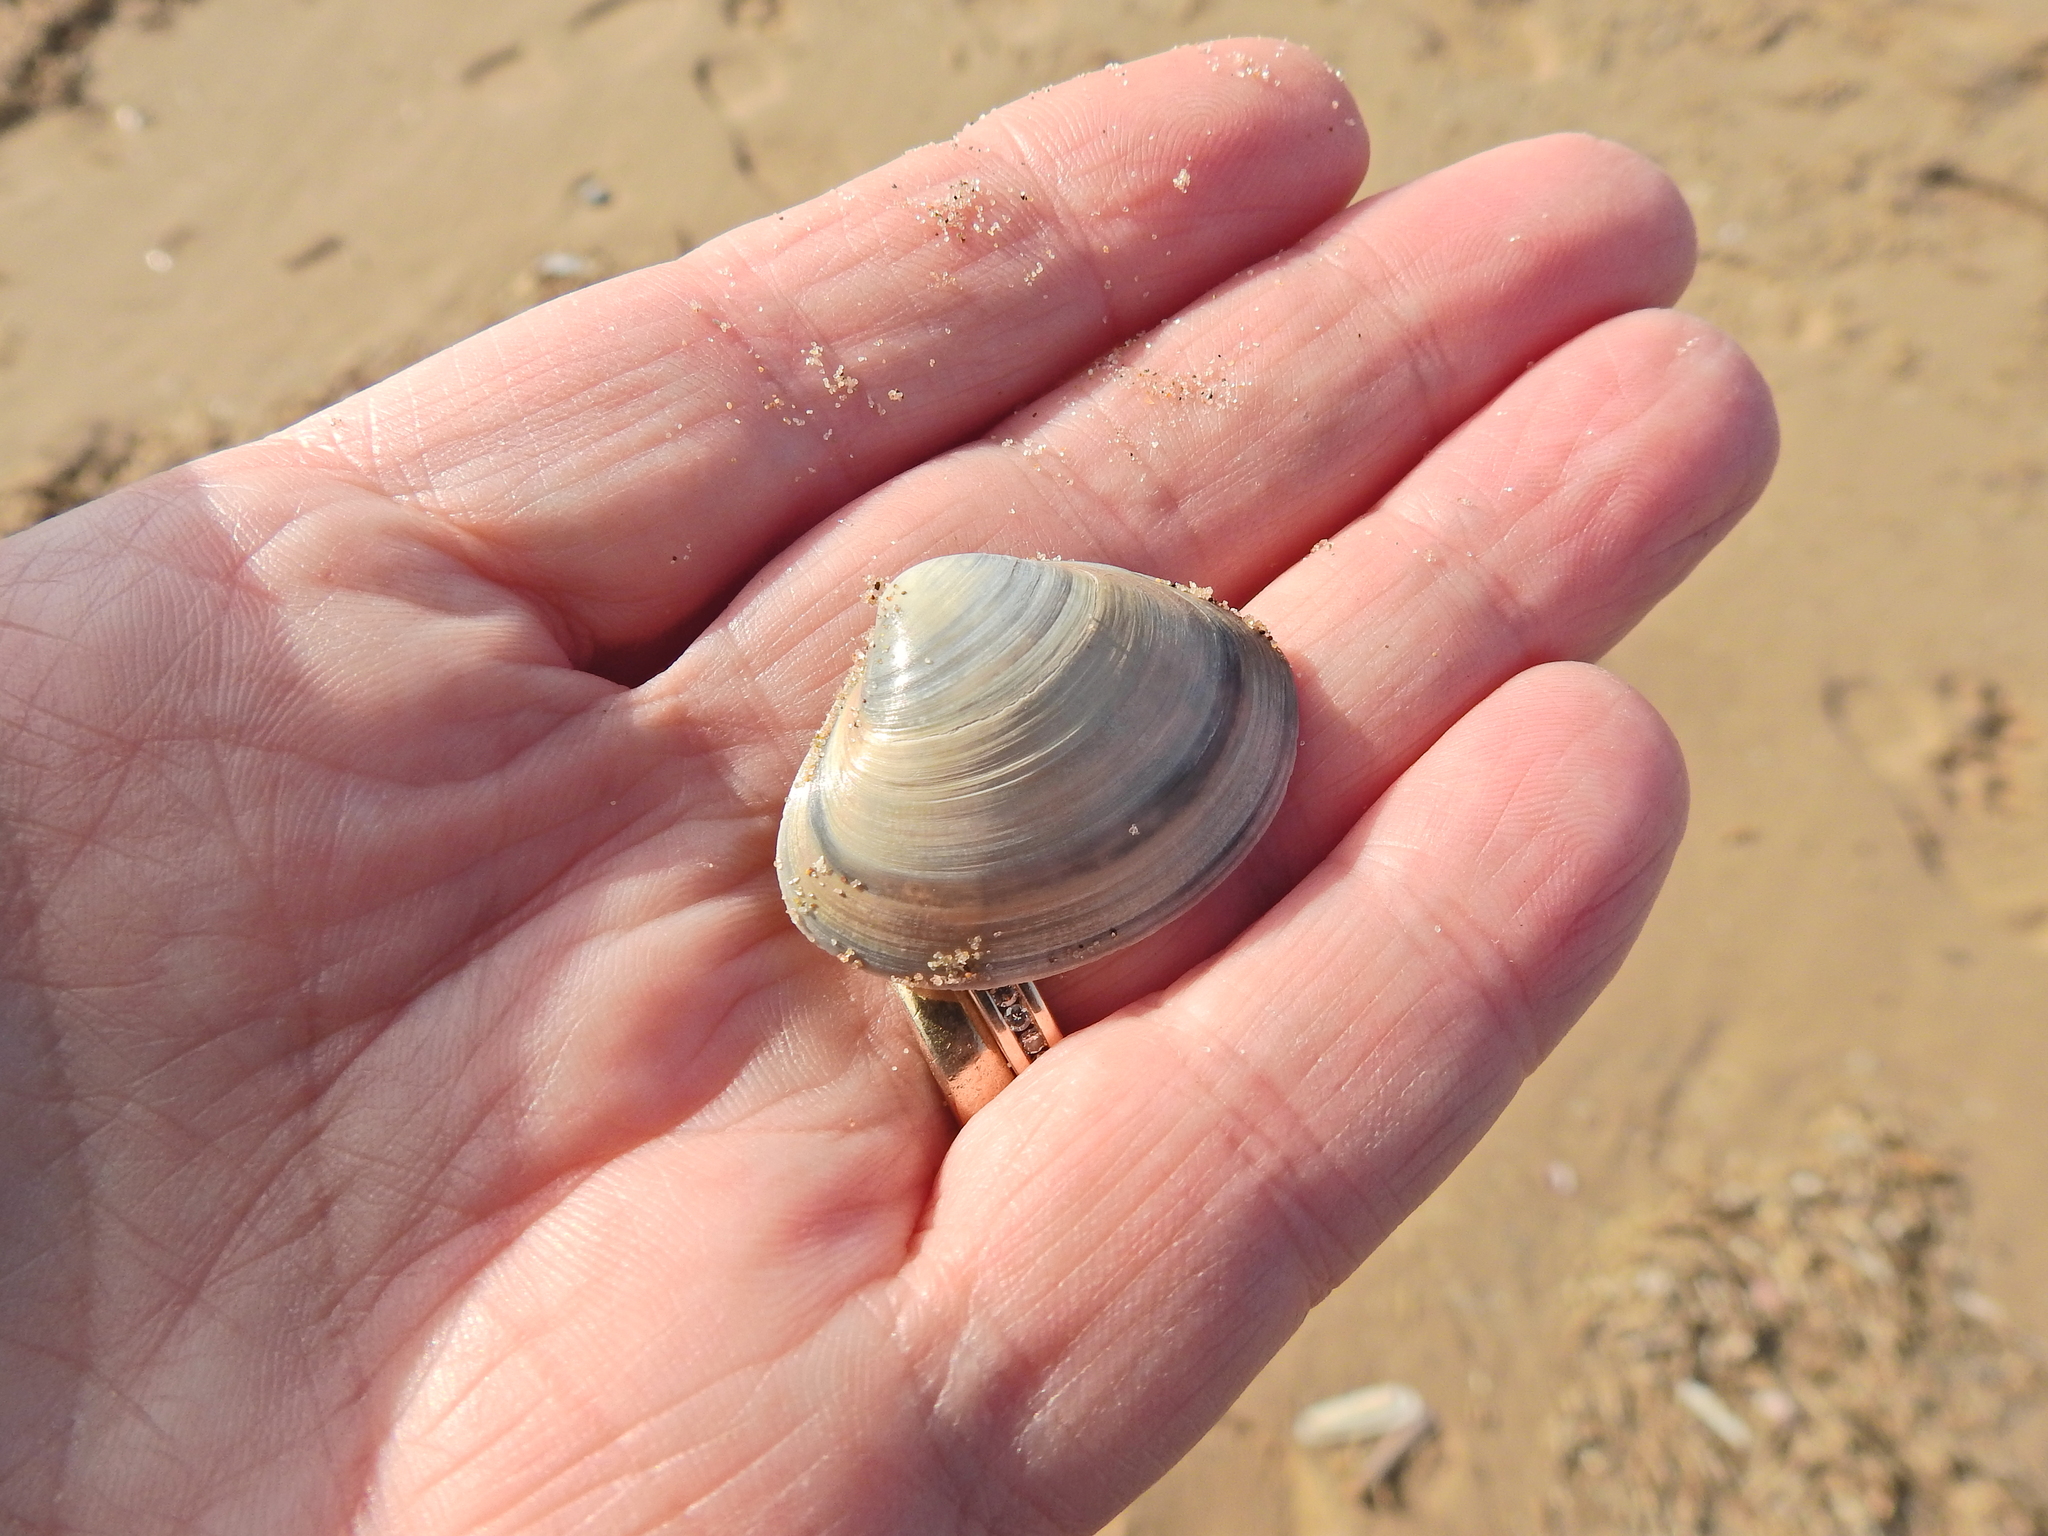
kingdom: Animalia
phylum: Mollusca
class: Bivalvia
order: Venerida
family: Mactridae
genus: Mactra
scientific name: Mactra stultorum
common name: Rayed trough shell
